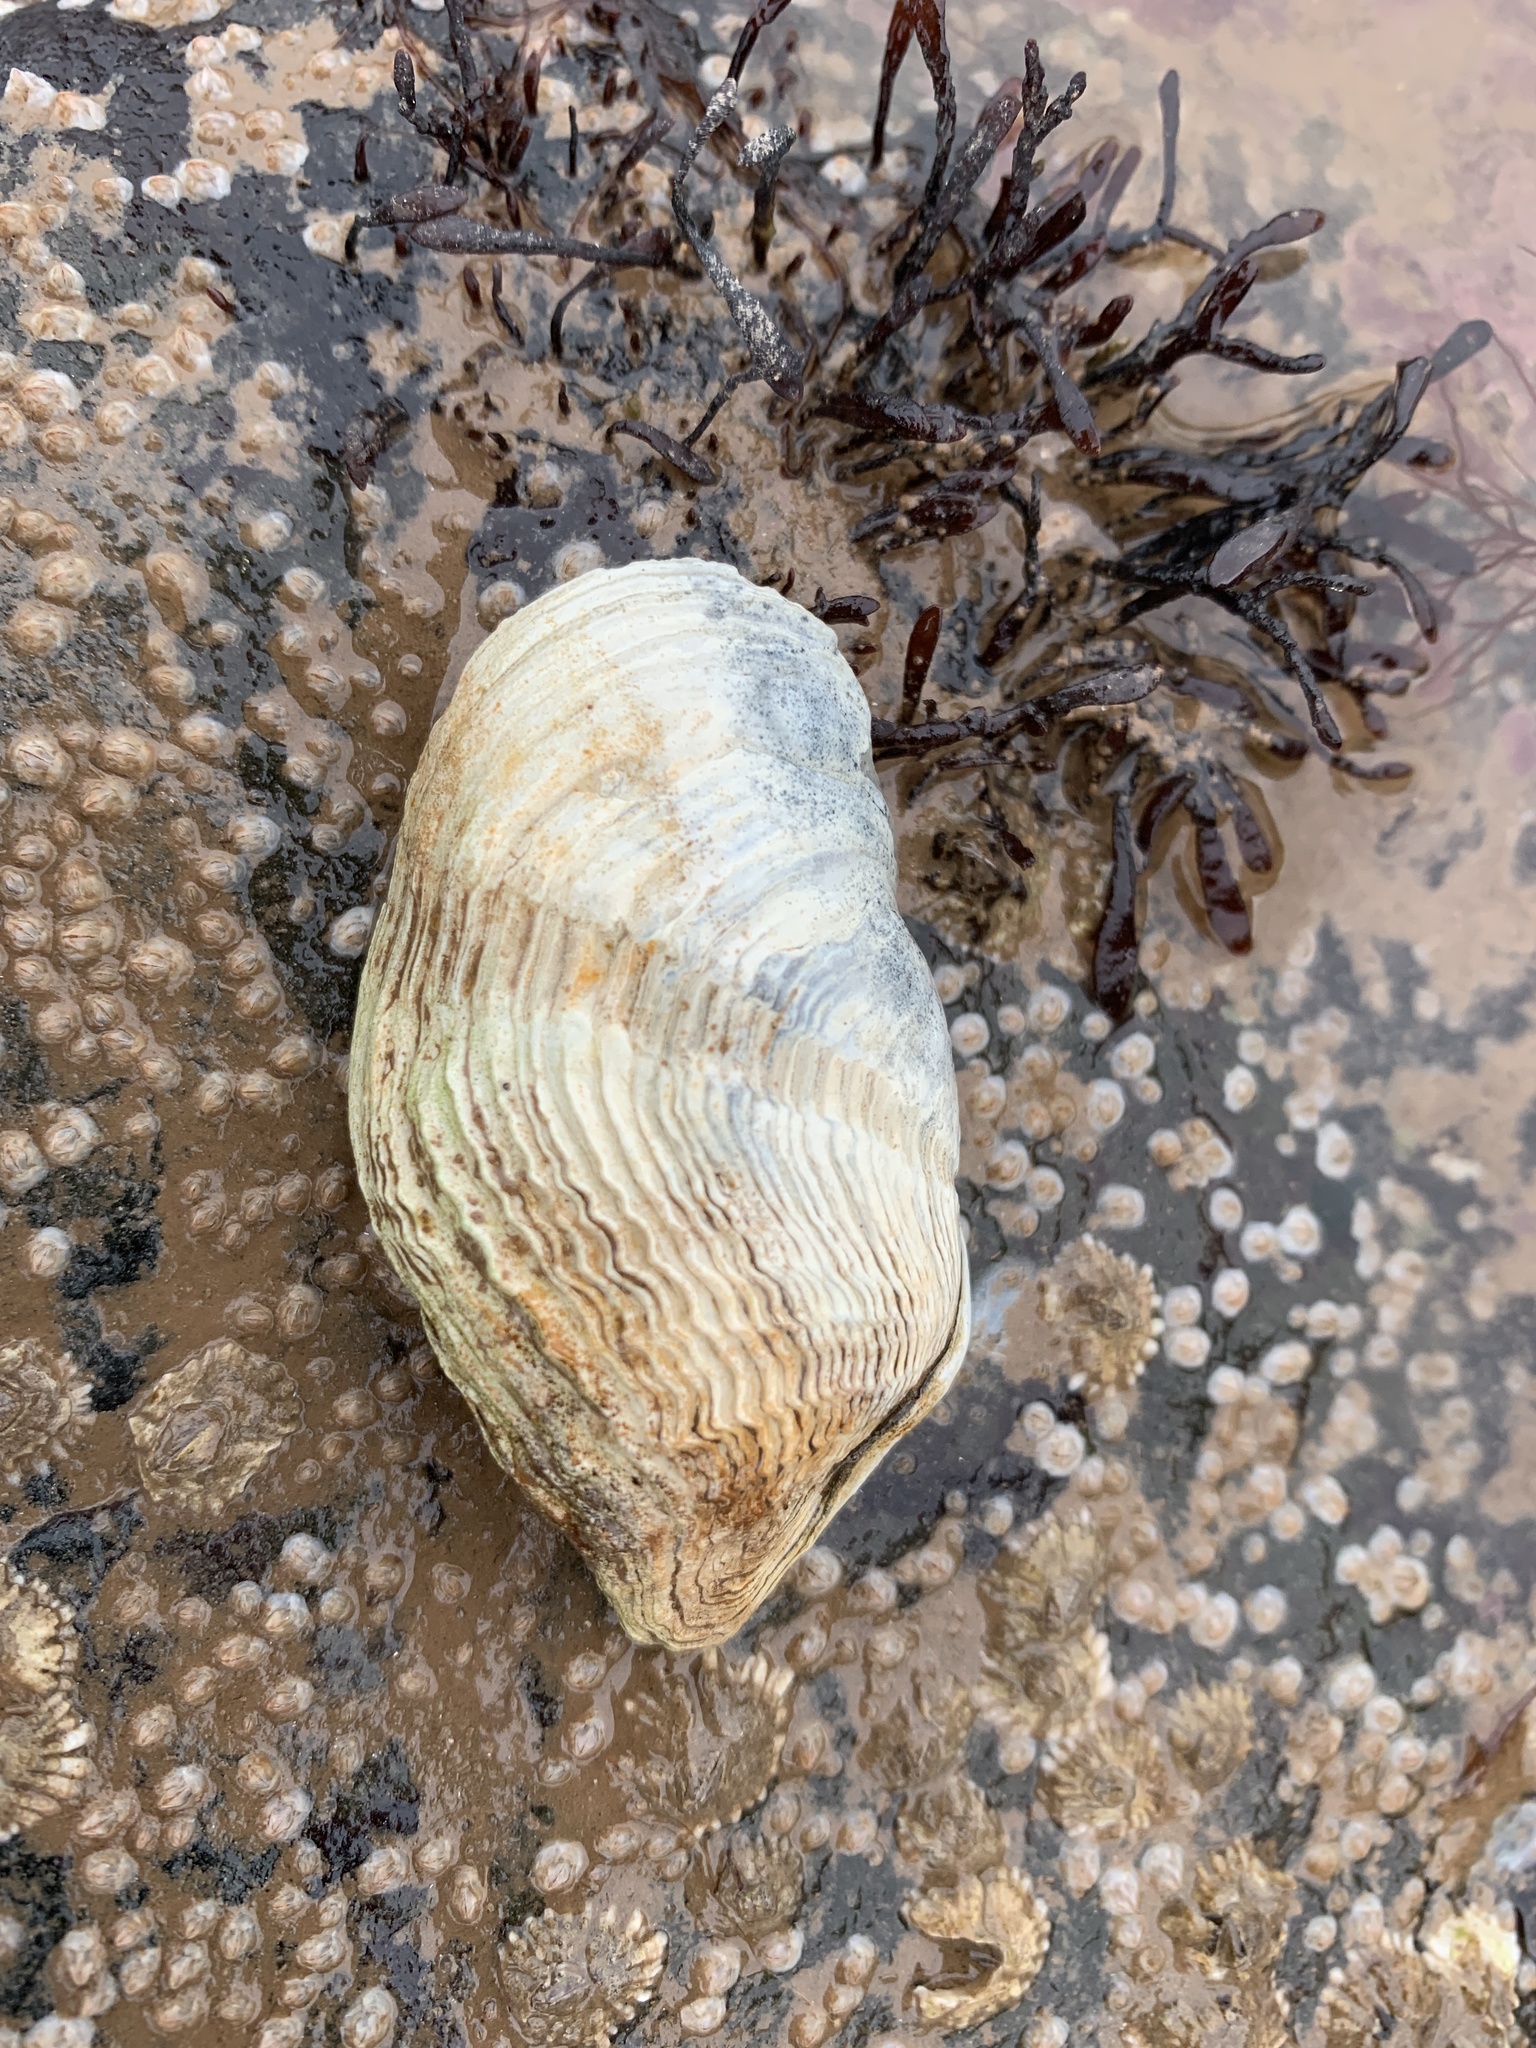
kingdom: Animalia
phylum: Mollusca
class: Bivalvia
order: Myida
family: Pholadidae
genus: Zirfaea
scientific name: Zirfaea crispata
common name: Oval piddock
